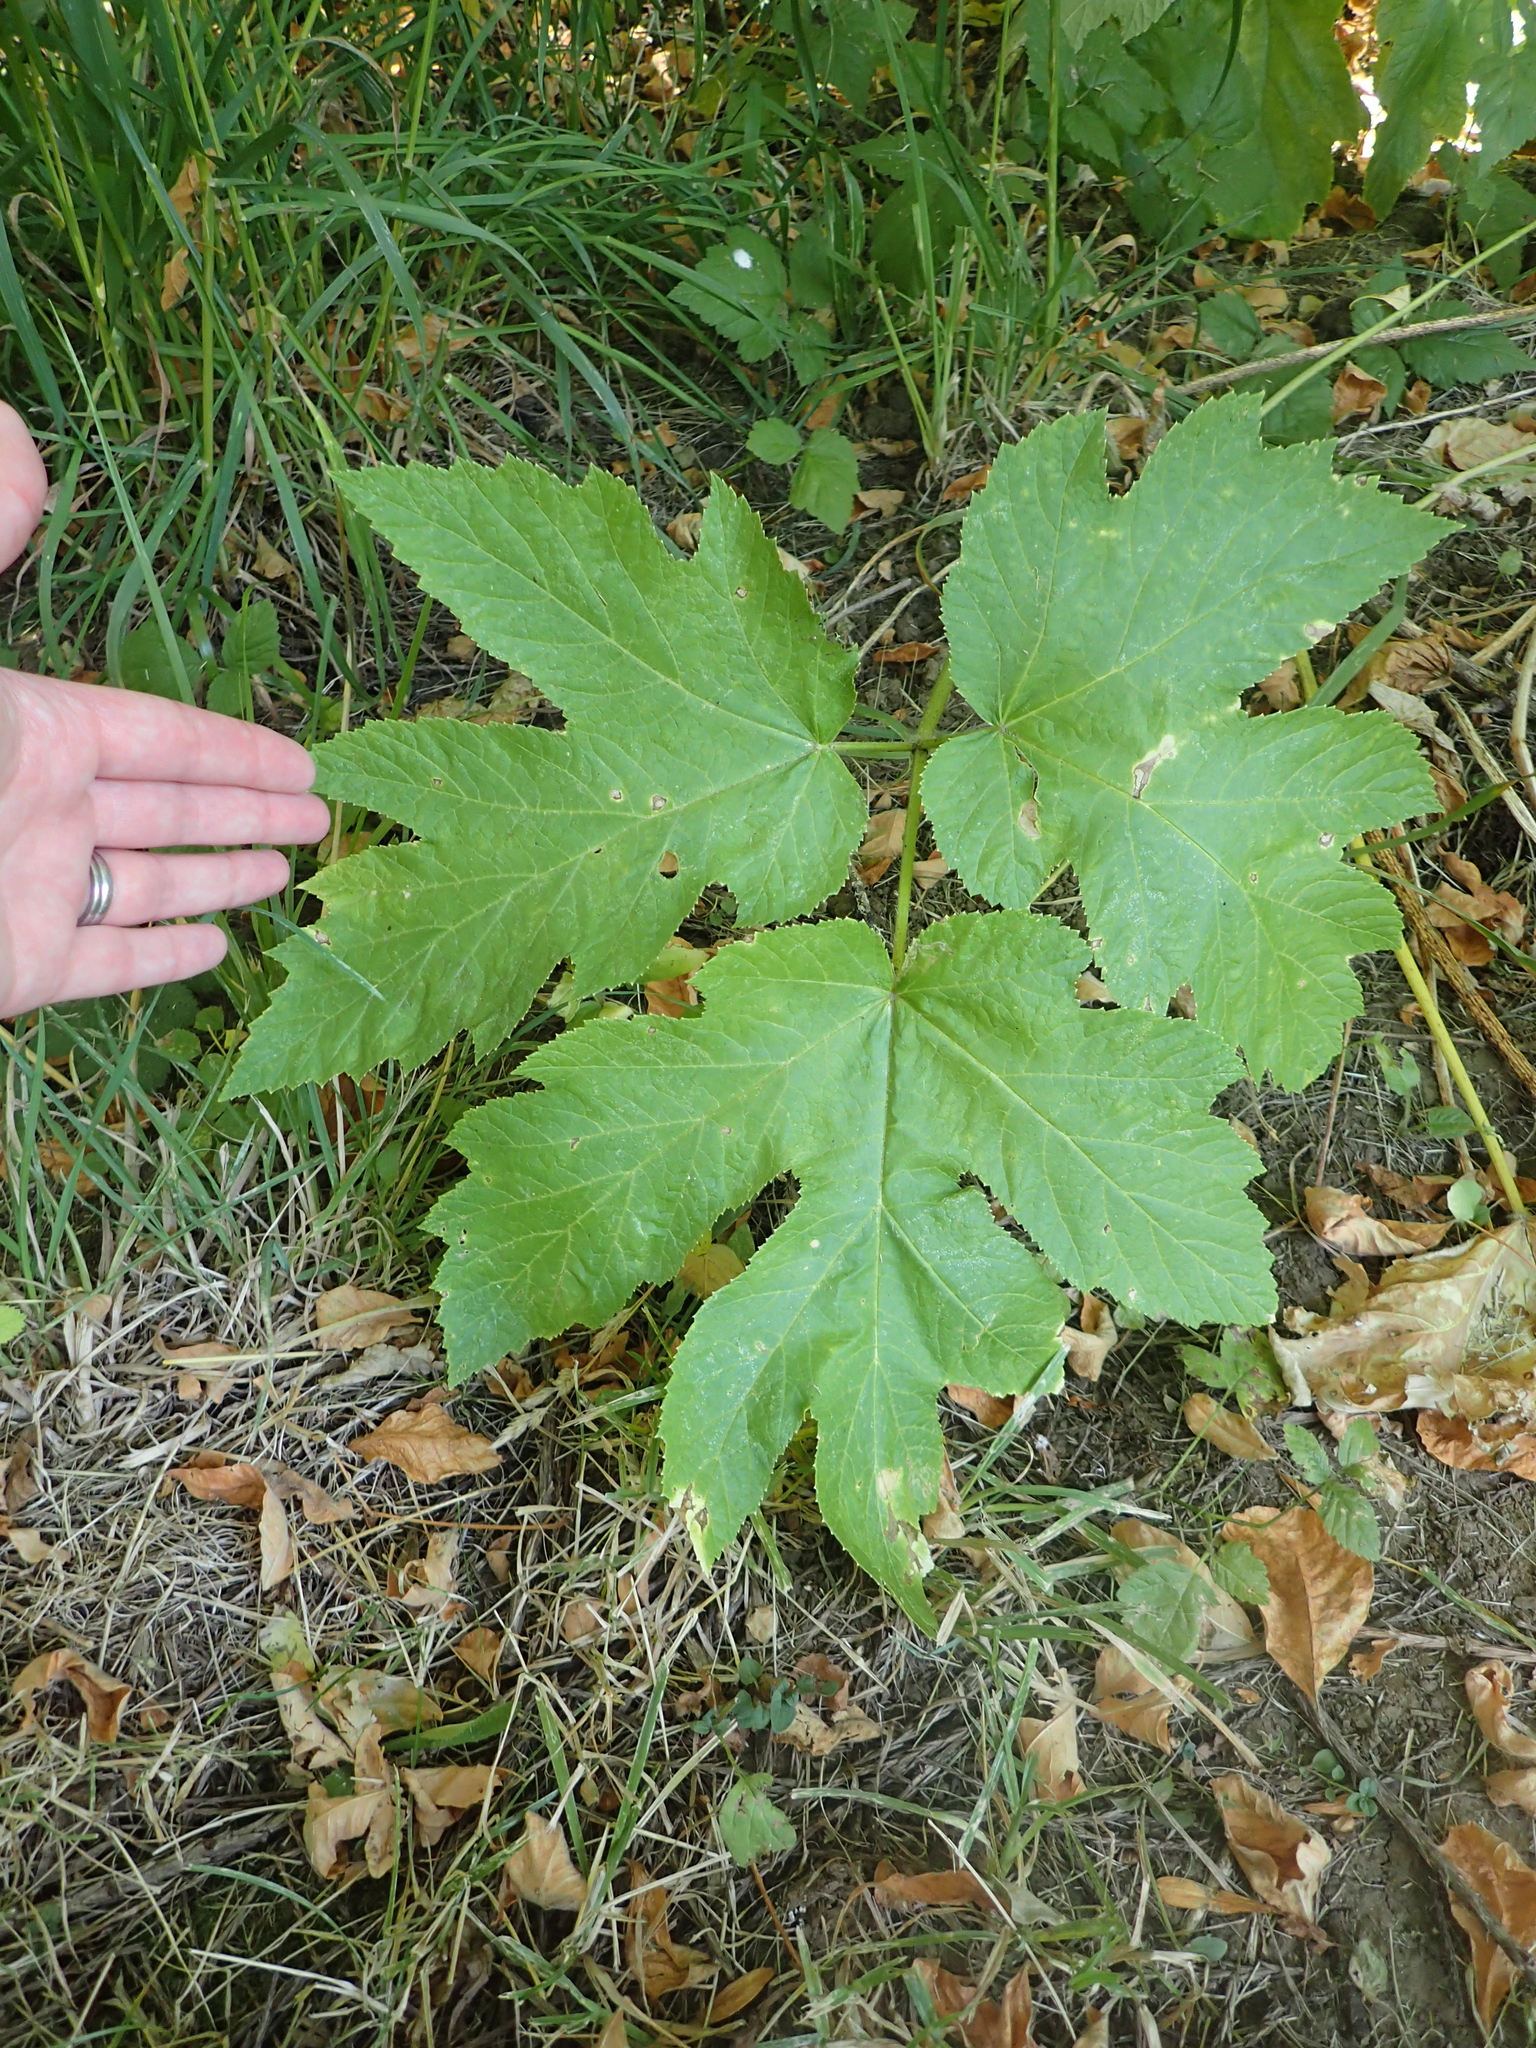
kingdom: Plantae
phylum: Tracheophyta
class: Magnoliopsida
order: Apiales
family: Apiaceae
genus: Heracleum
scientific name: Heracleum maximum
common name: American cow parsnip
